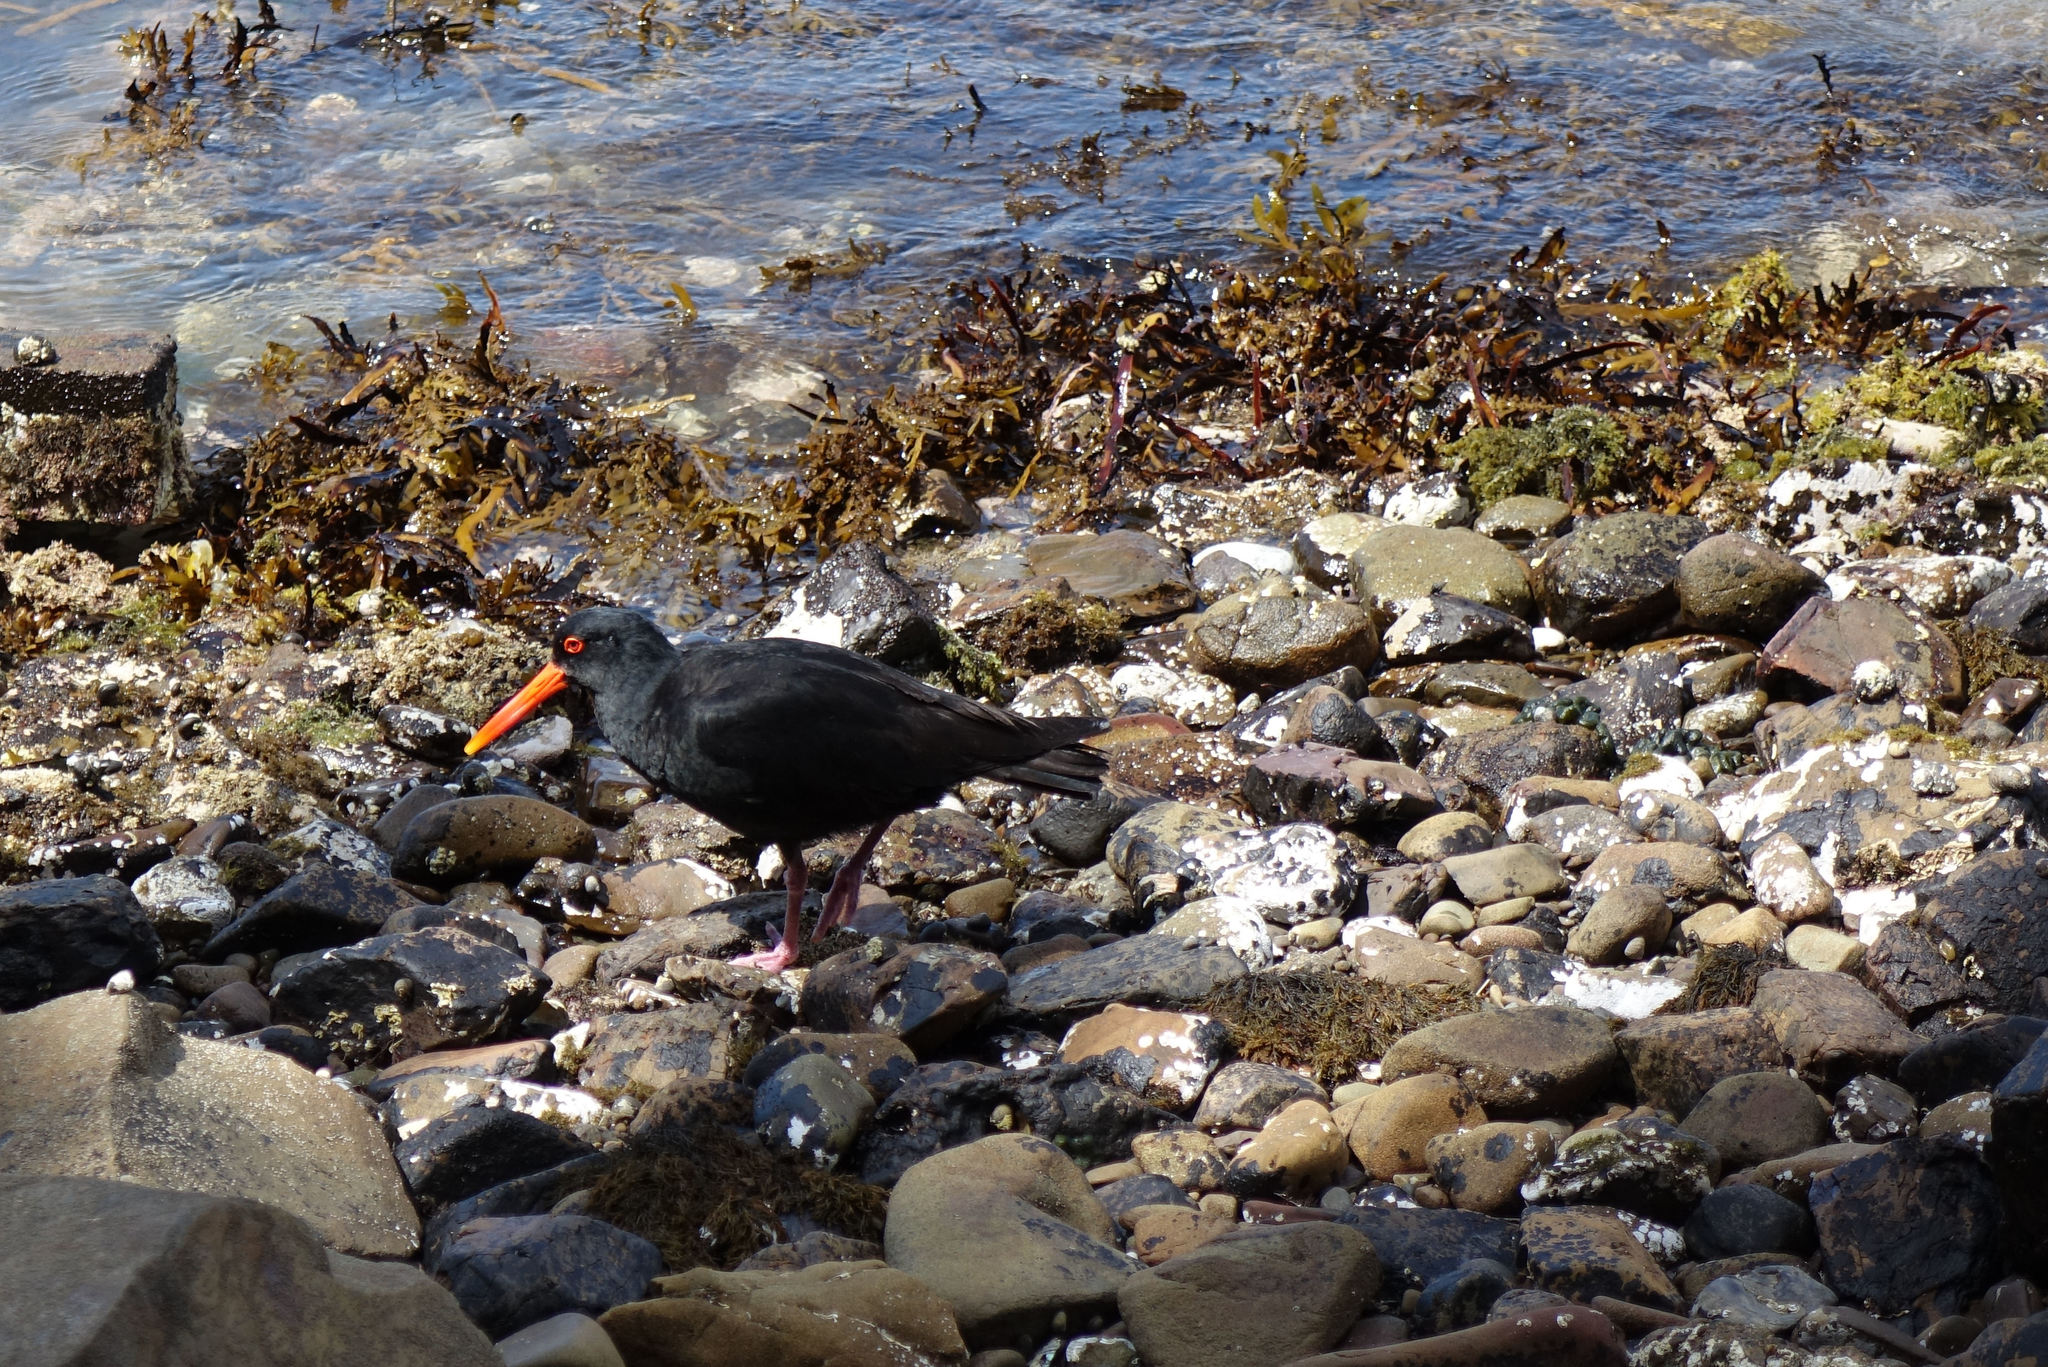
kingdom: Animalia
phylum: Chordata
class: Aves
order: Charadriiformes
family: Haematopodidae
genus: Haematopus
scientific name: Haematopus unicolor
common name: Variable oystercatcher
